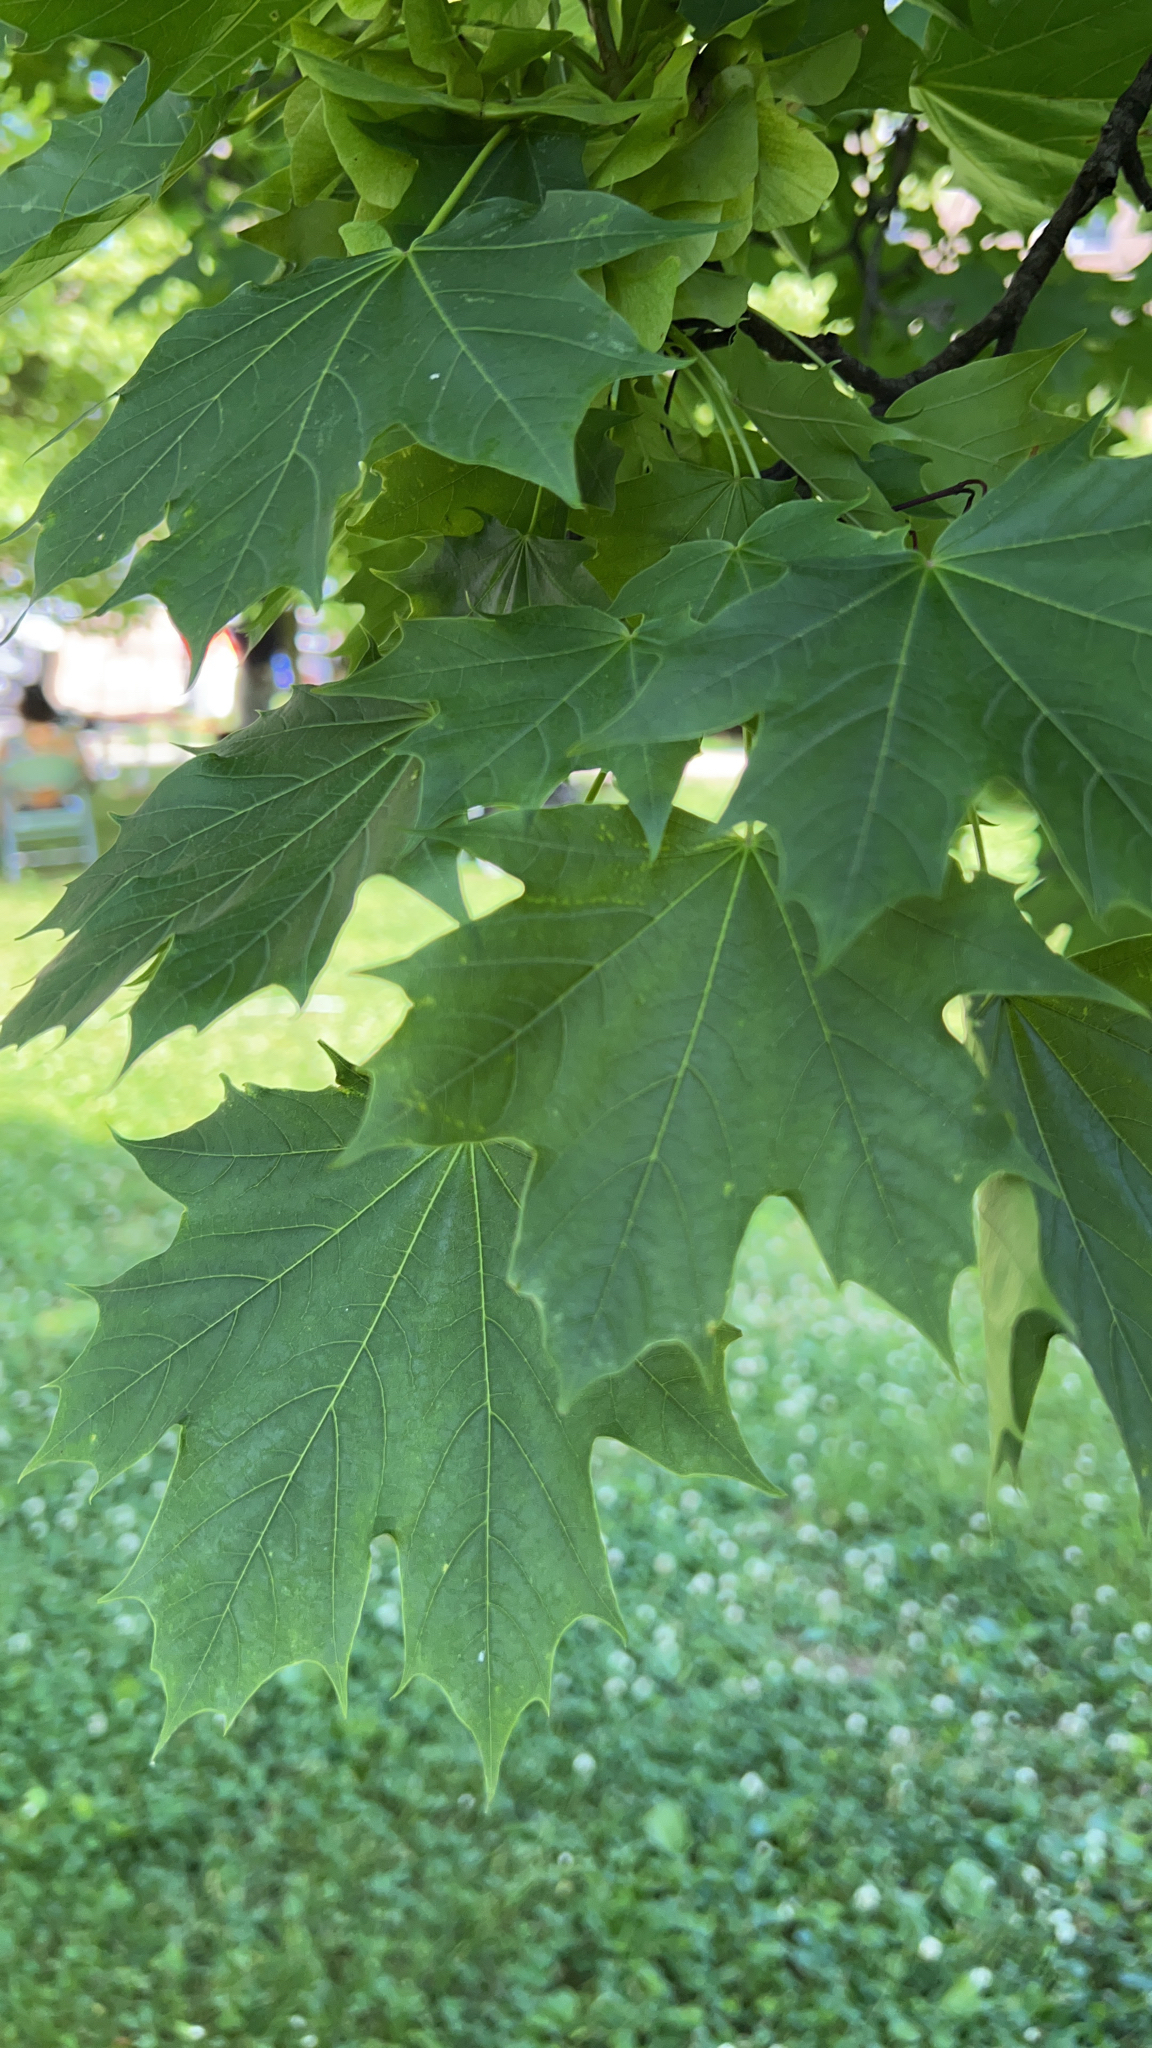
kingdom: Plantae
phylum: Tracheophyta
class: Magnoliopsida
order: Sapindales
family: Sapindaceae
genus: Acer
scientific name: Acer platanoides
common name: Norway maple
